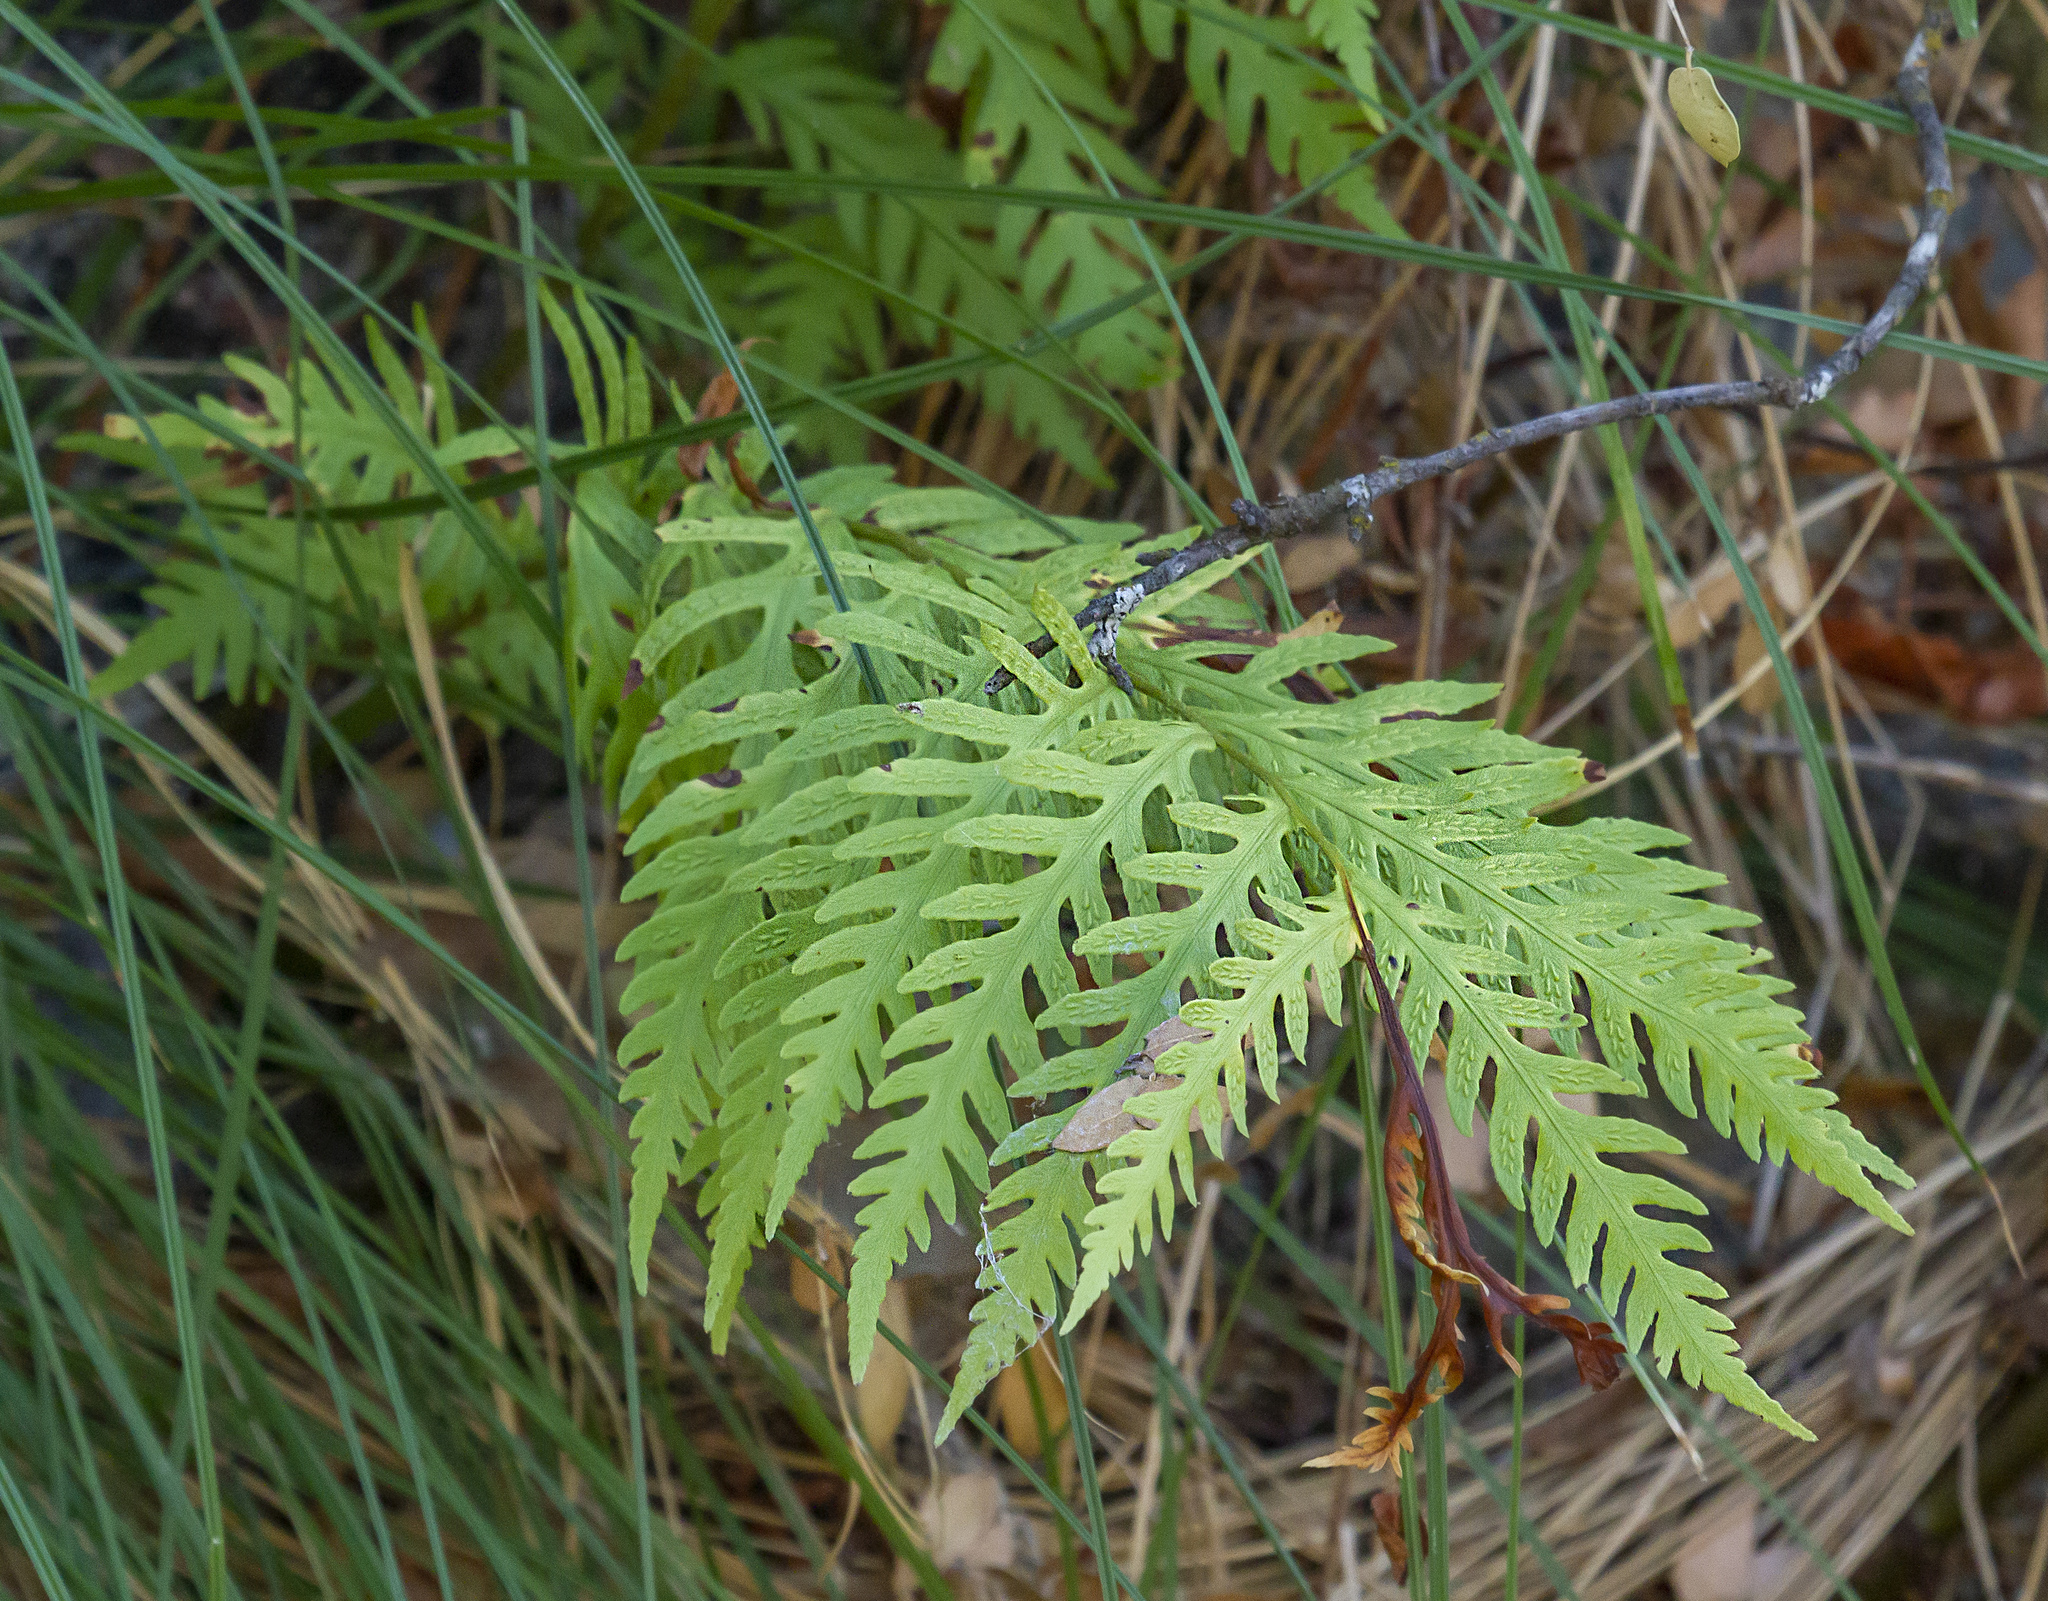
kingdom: Plantae
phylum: Tracheophyta
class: Polypodiopsida
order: Polypodiales
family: Blechnaceae
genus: Woodwardia
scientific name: Woodwardia fimbriata
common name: Giant chain fern
